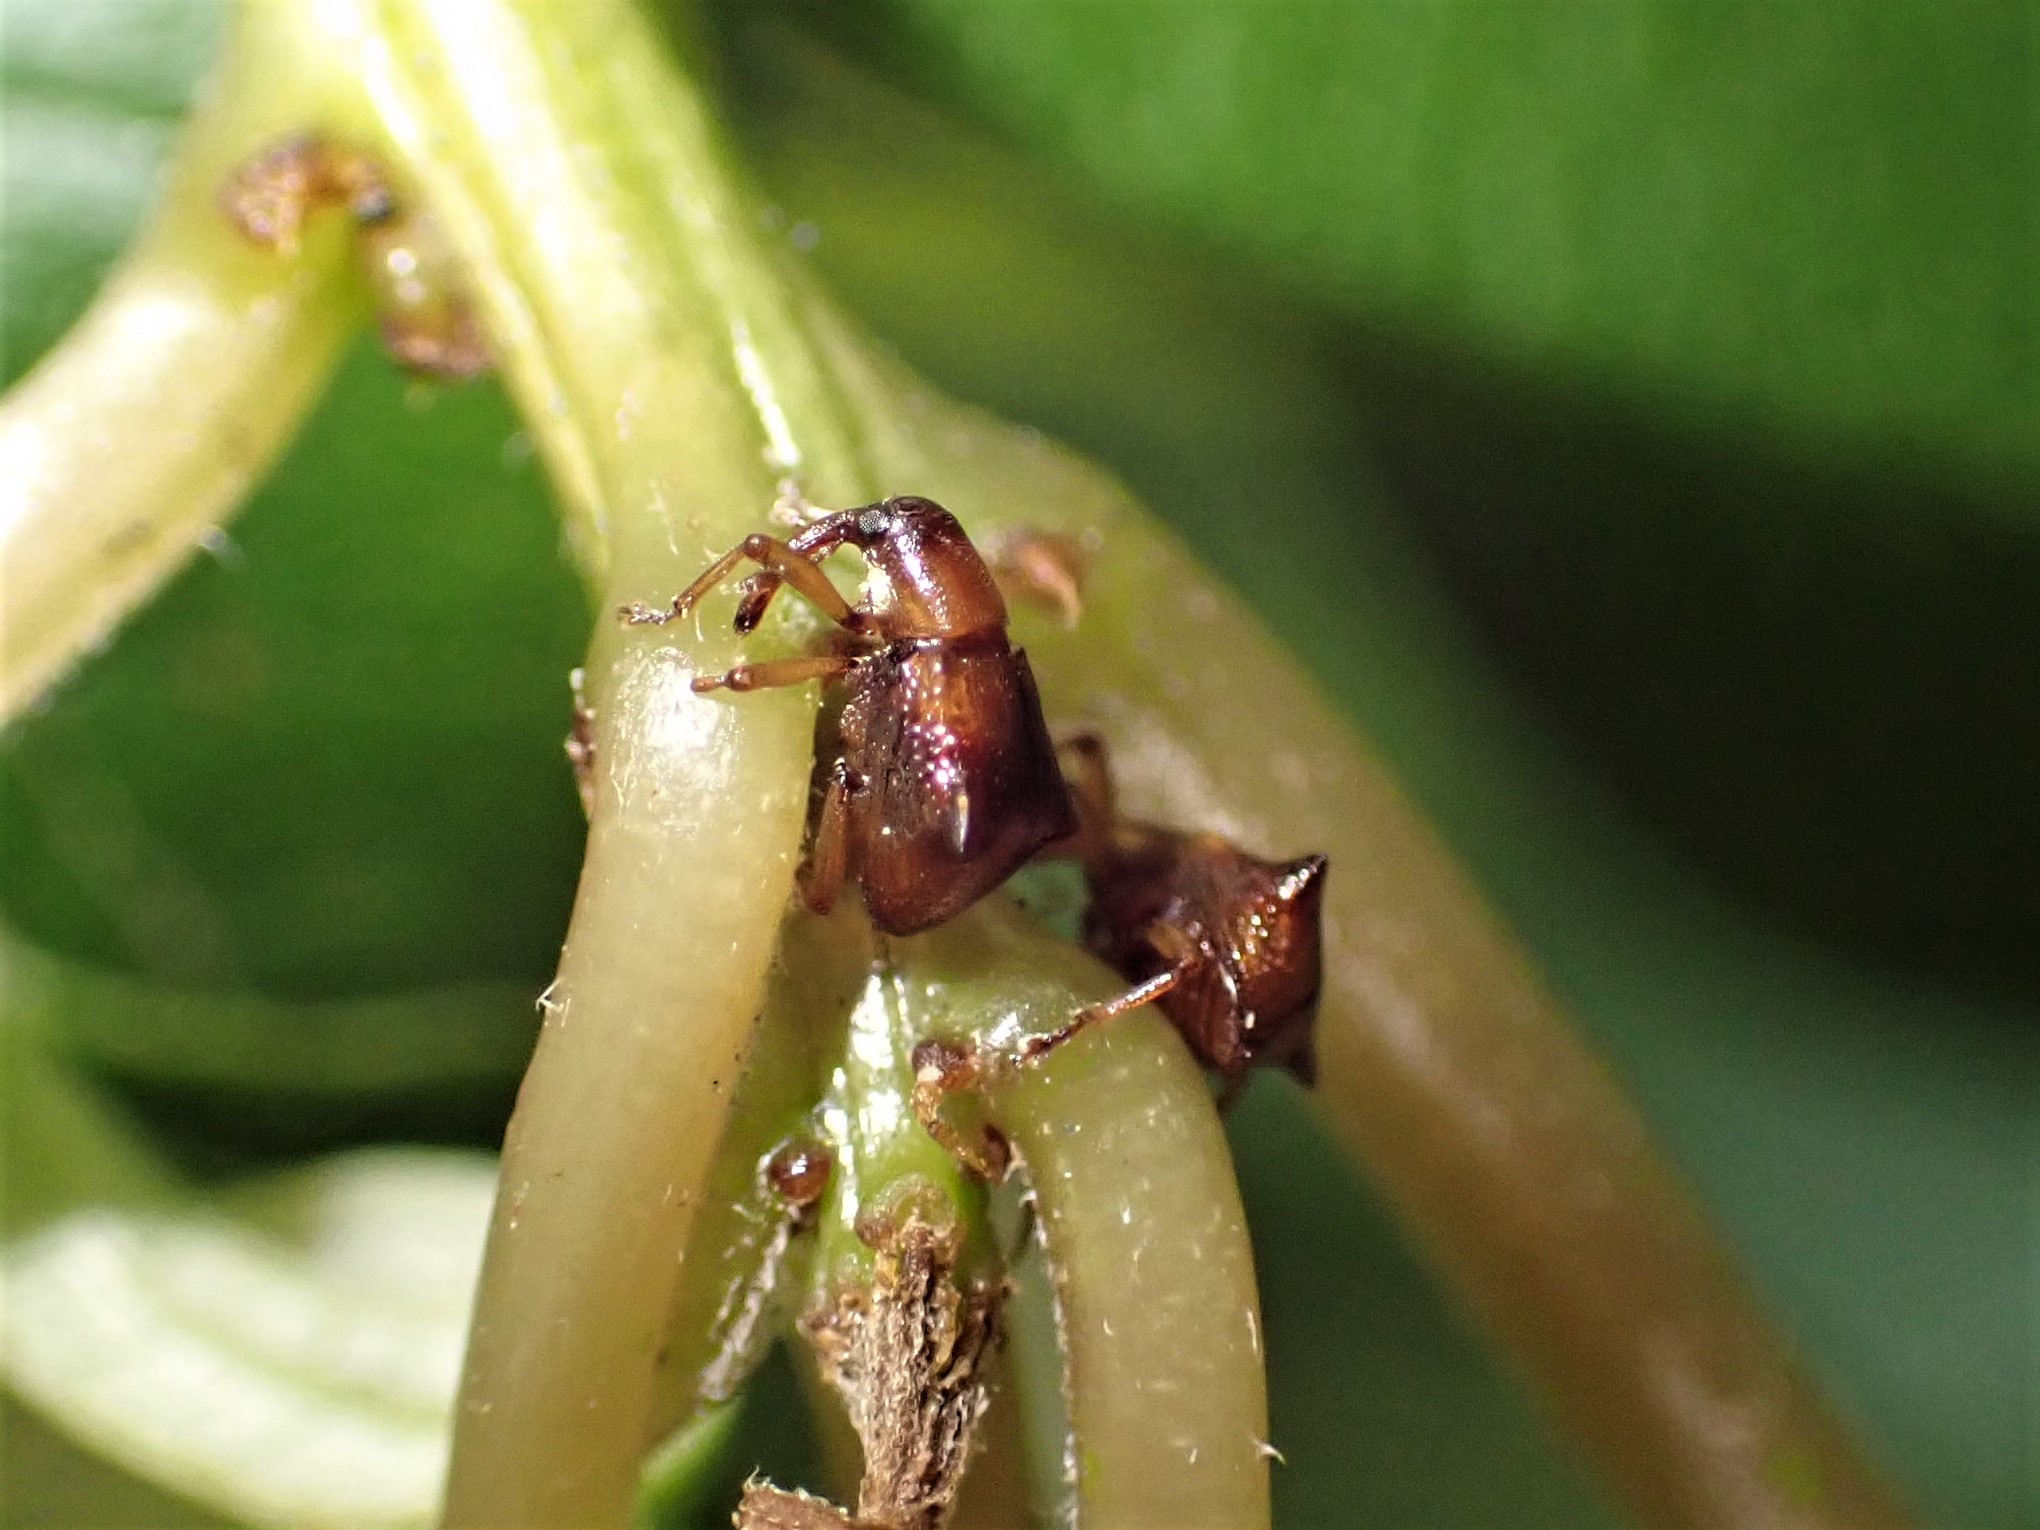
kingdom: Animalia
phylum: Arthropoda
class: Insecta
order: Coleoptera
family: Curculionidae
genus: Oropterus
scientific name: Oropterus coniger
